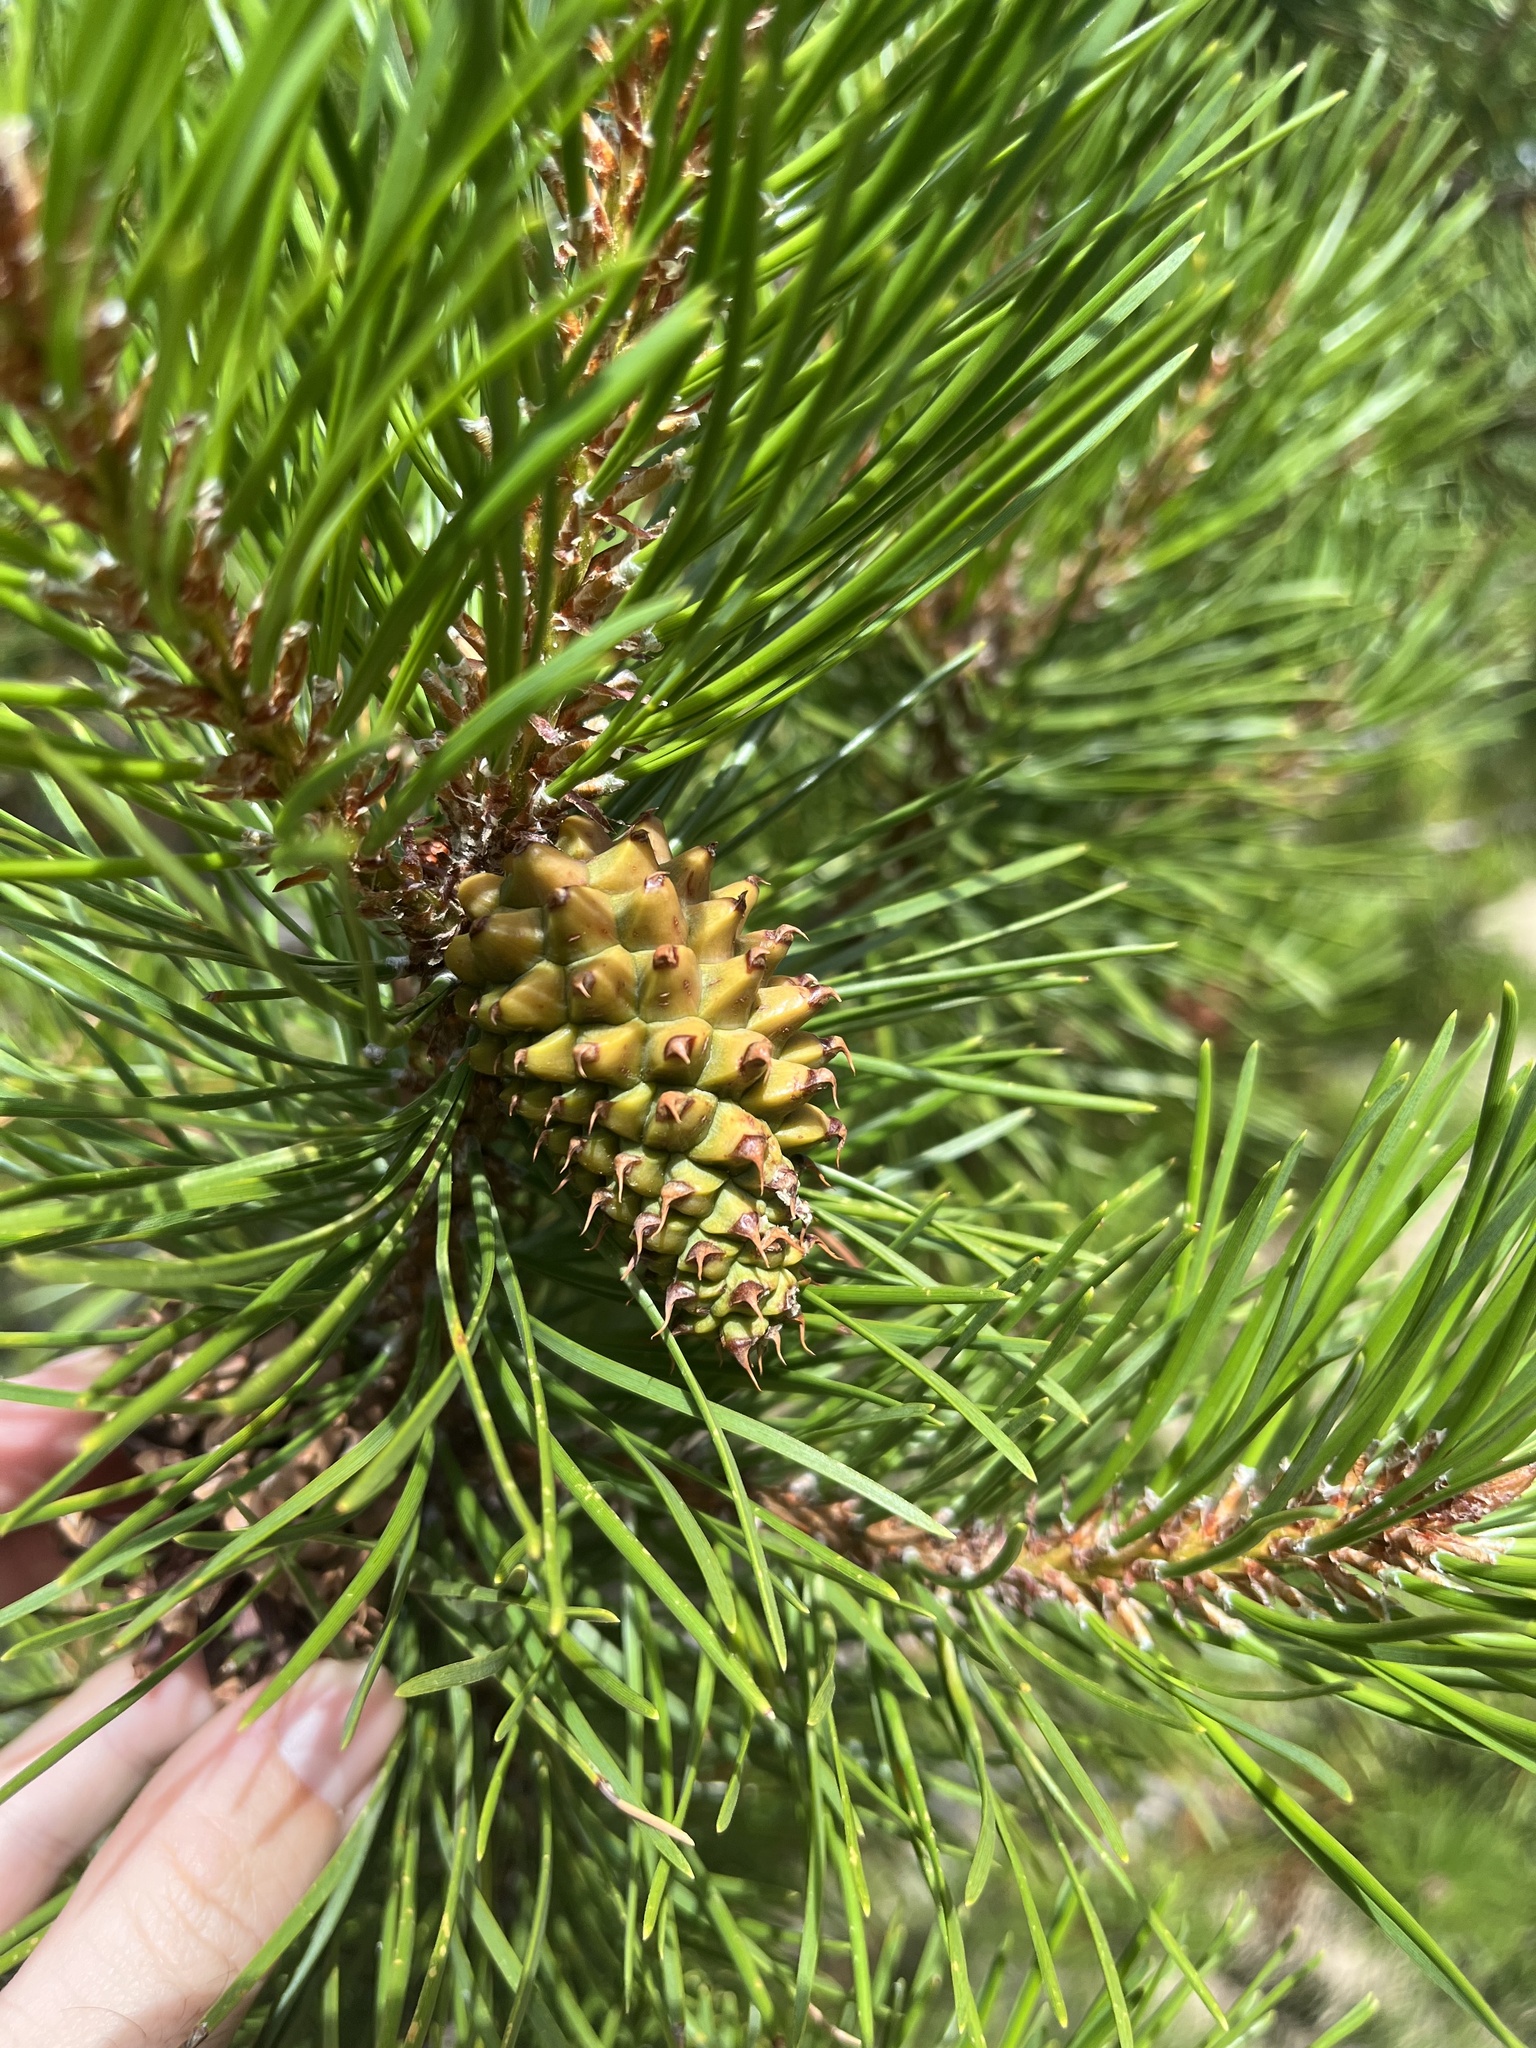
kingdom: Plantae
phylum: Tracheophyta
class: Pinopsida
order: Pinales
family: Pinaceae
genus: Pinus
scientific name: Pinus contorta
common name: Lodgepole pine
